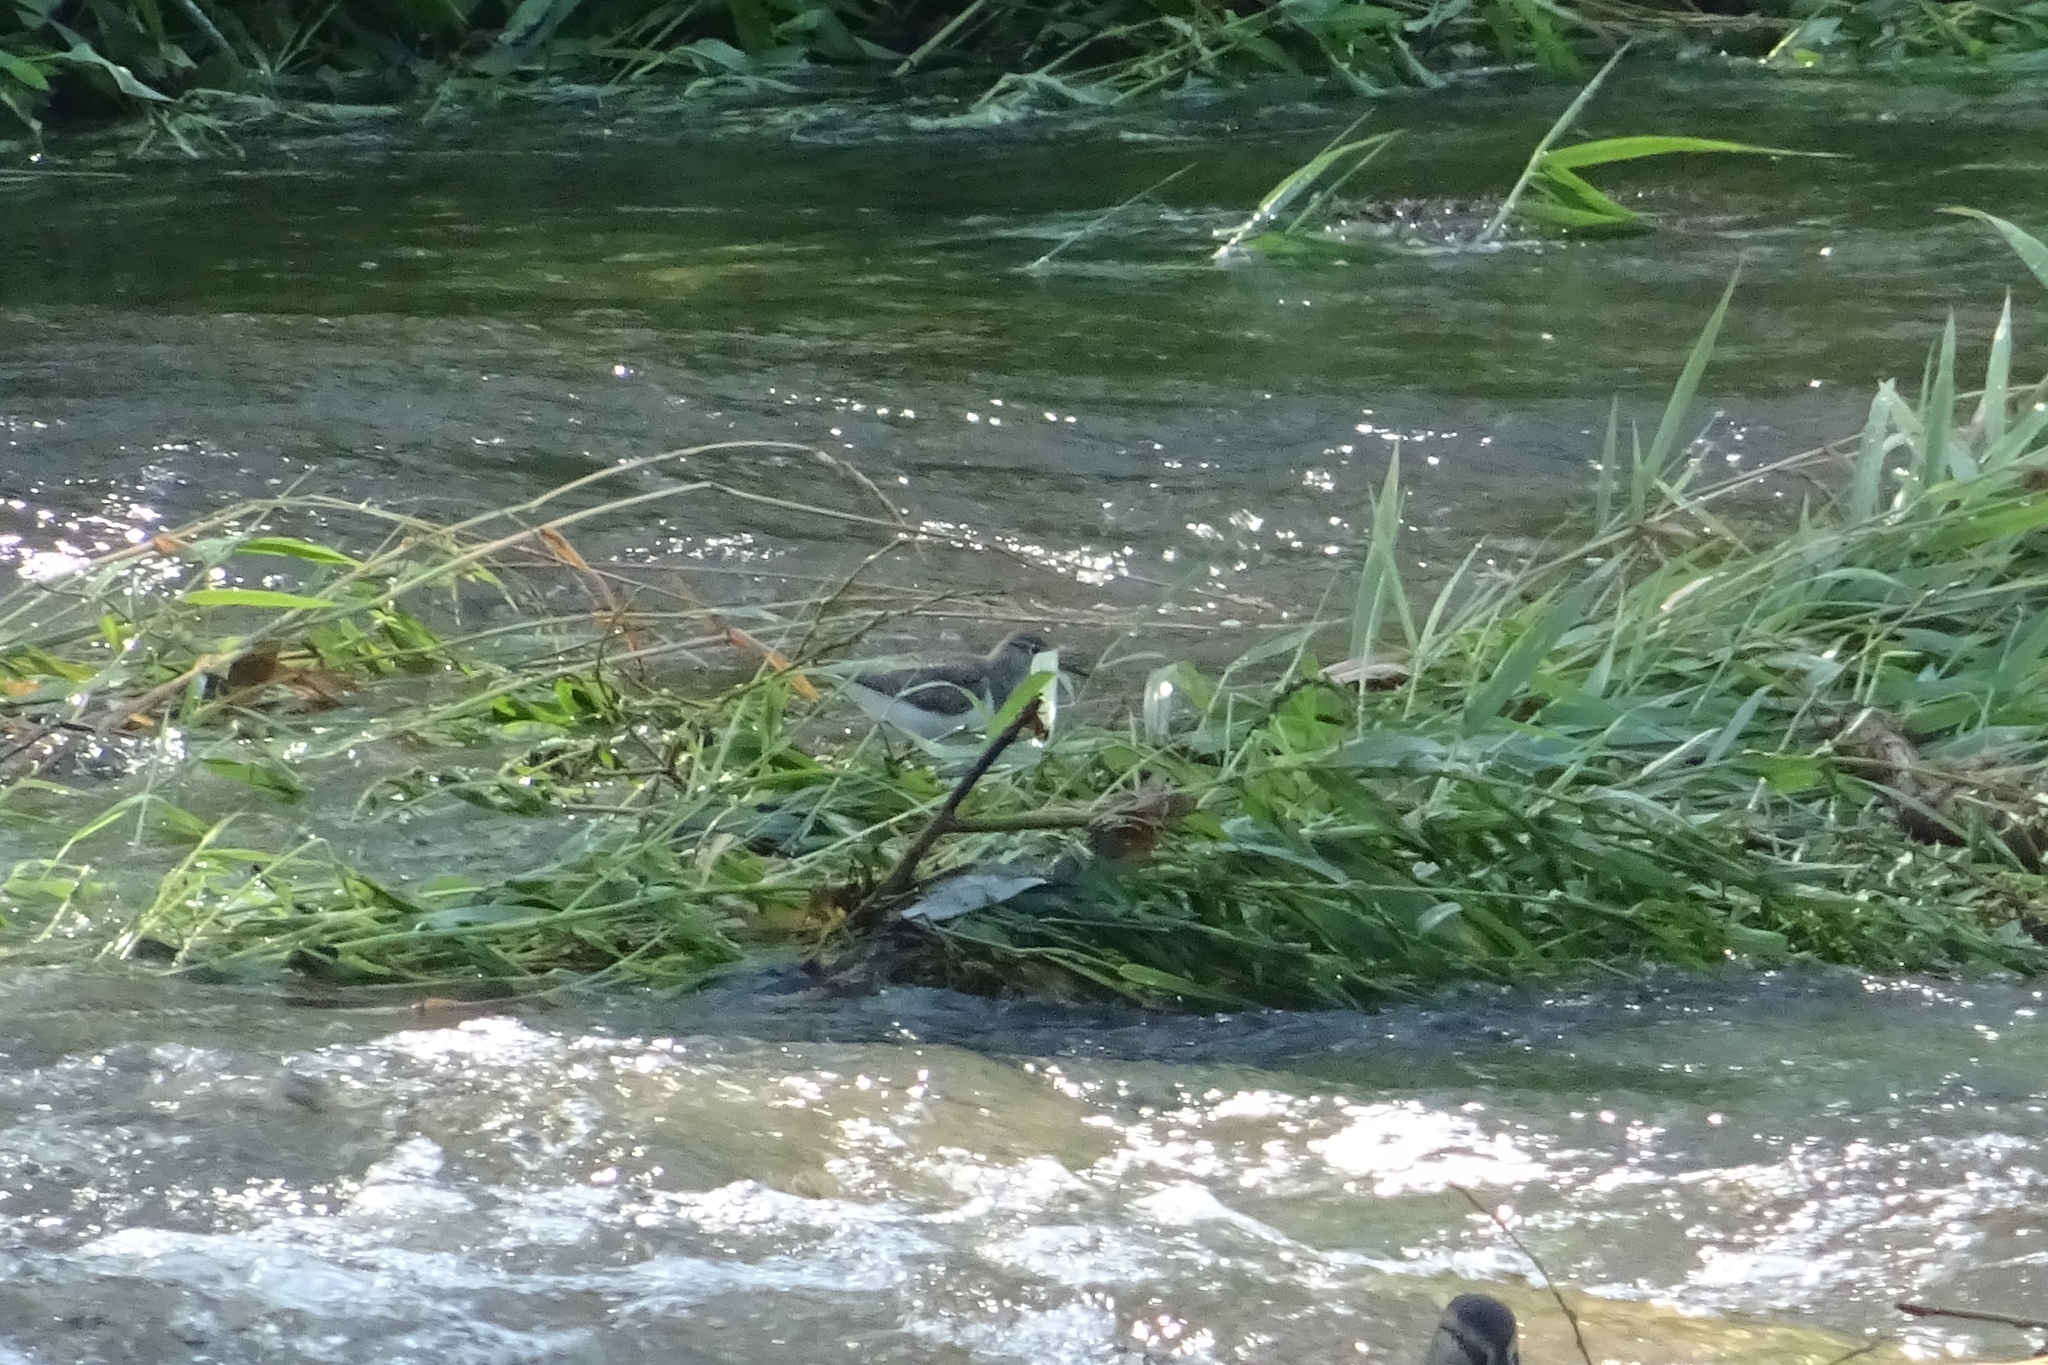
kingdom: Animalia
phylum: Chordata
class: Aves
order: Charadriiformes
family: Scolopacidae
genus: Actitis
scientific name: Actitis hypoleucos
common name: Common sandpiper
